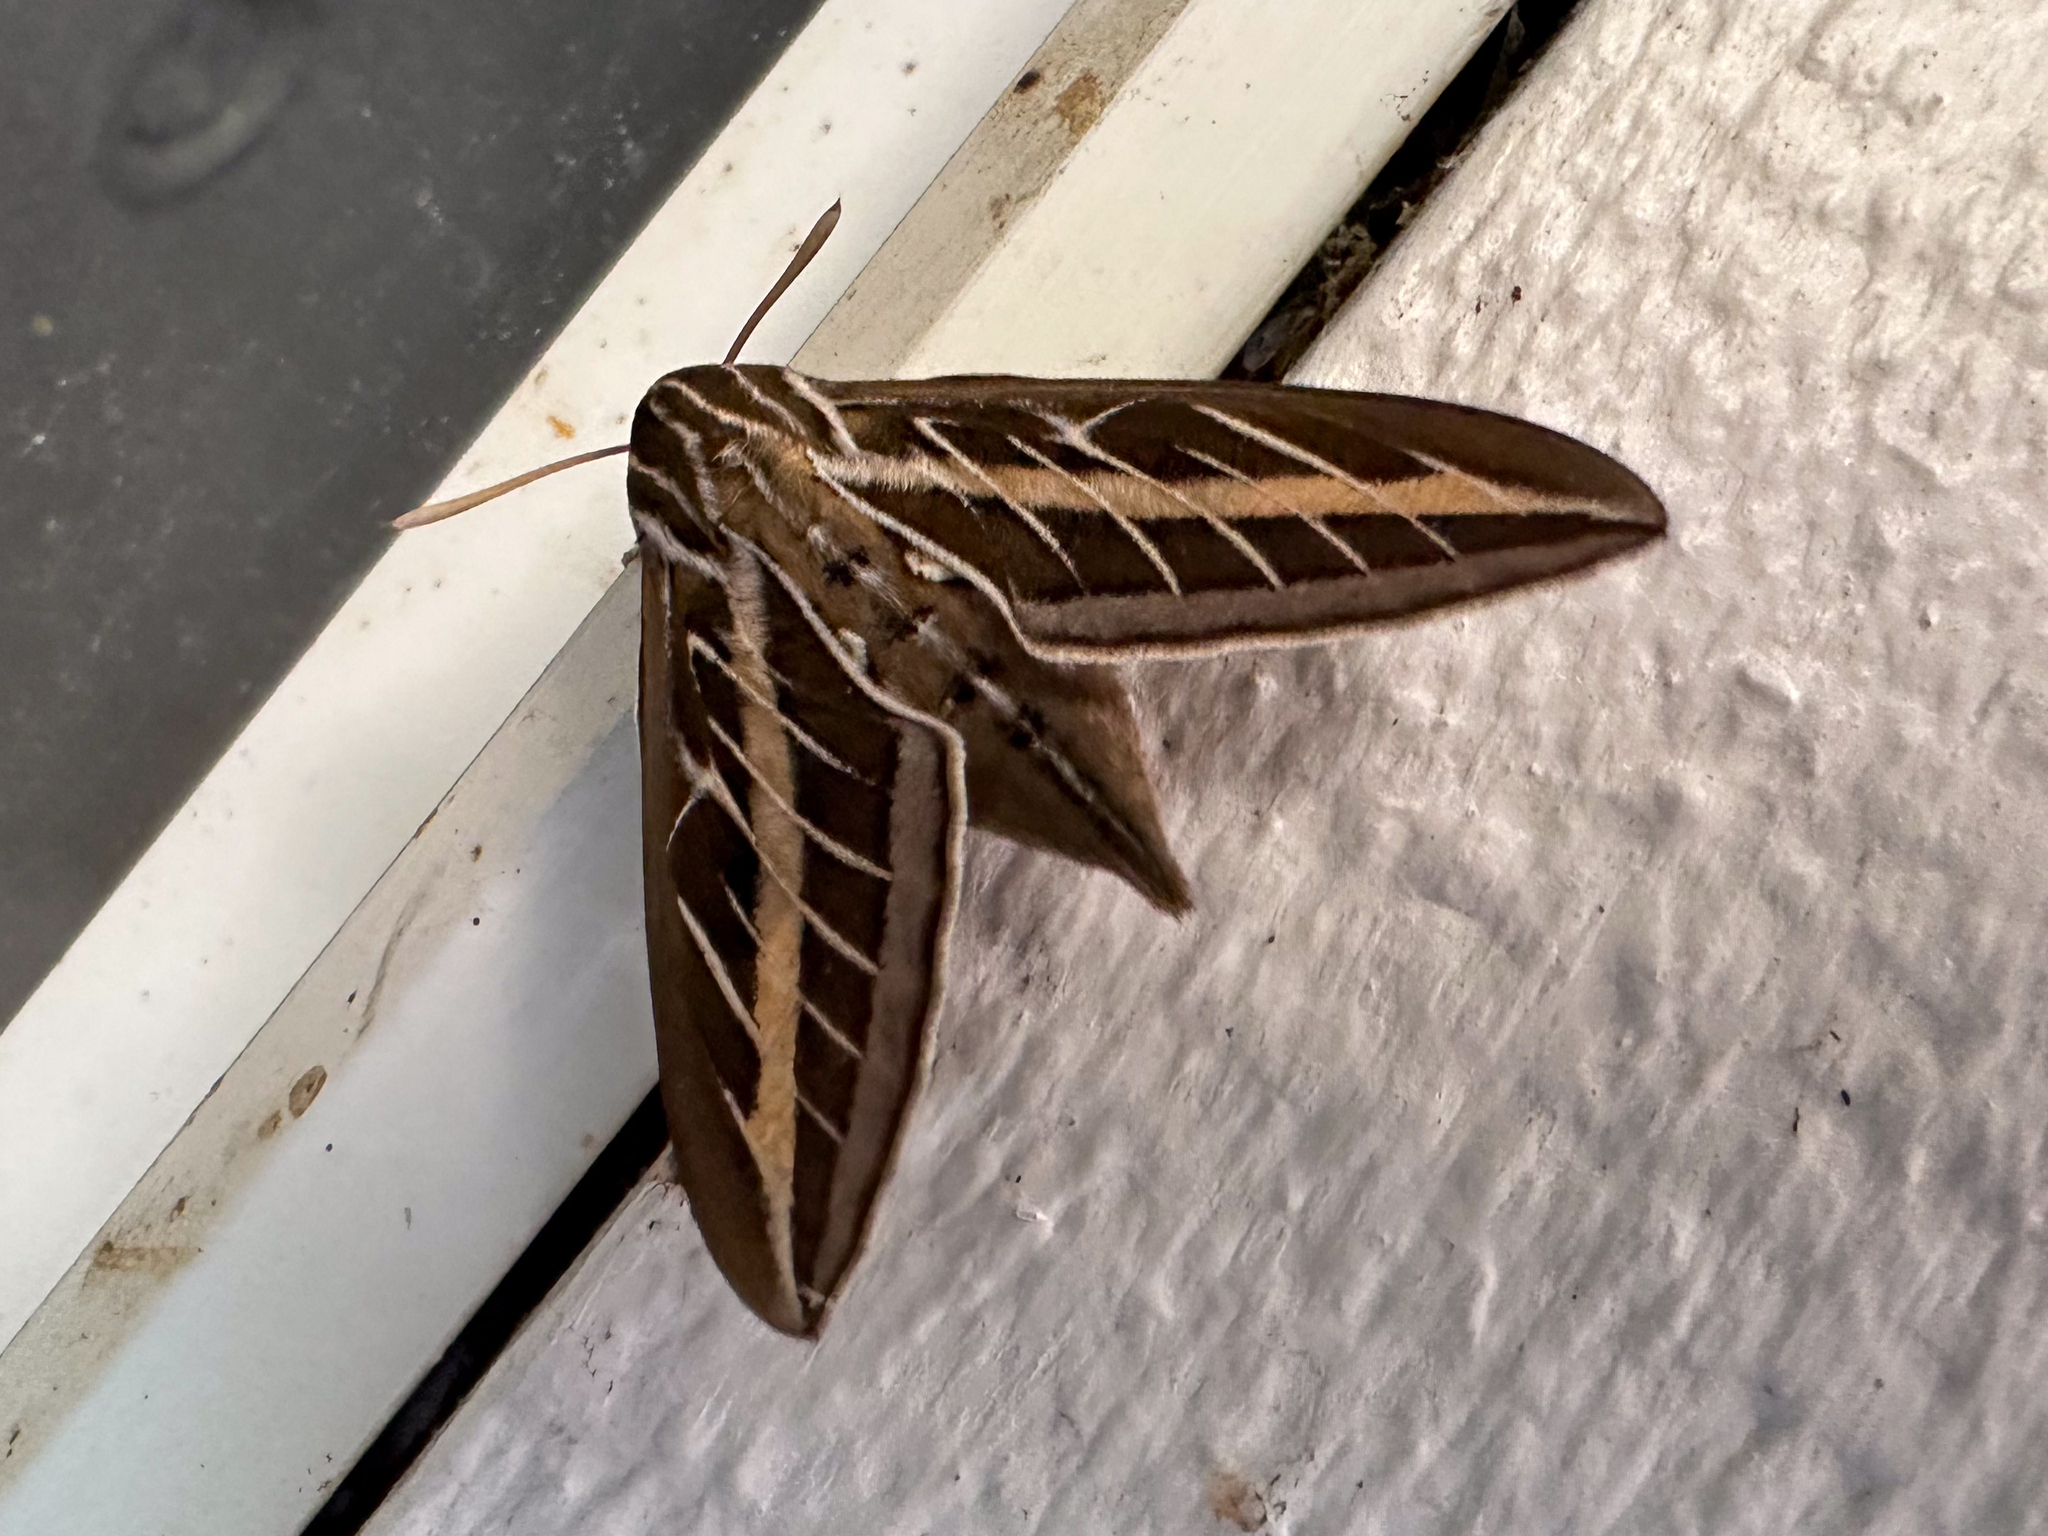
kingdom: Animalia
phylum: Arthropoda
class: Insecta
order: Lepidoptera
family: Sphingidae
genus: Hyles
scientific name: Hyles lineata
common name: White-lined sphinx
